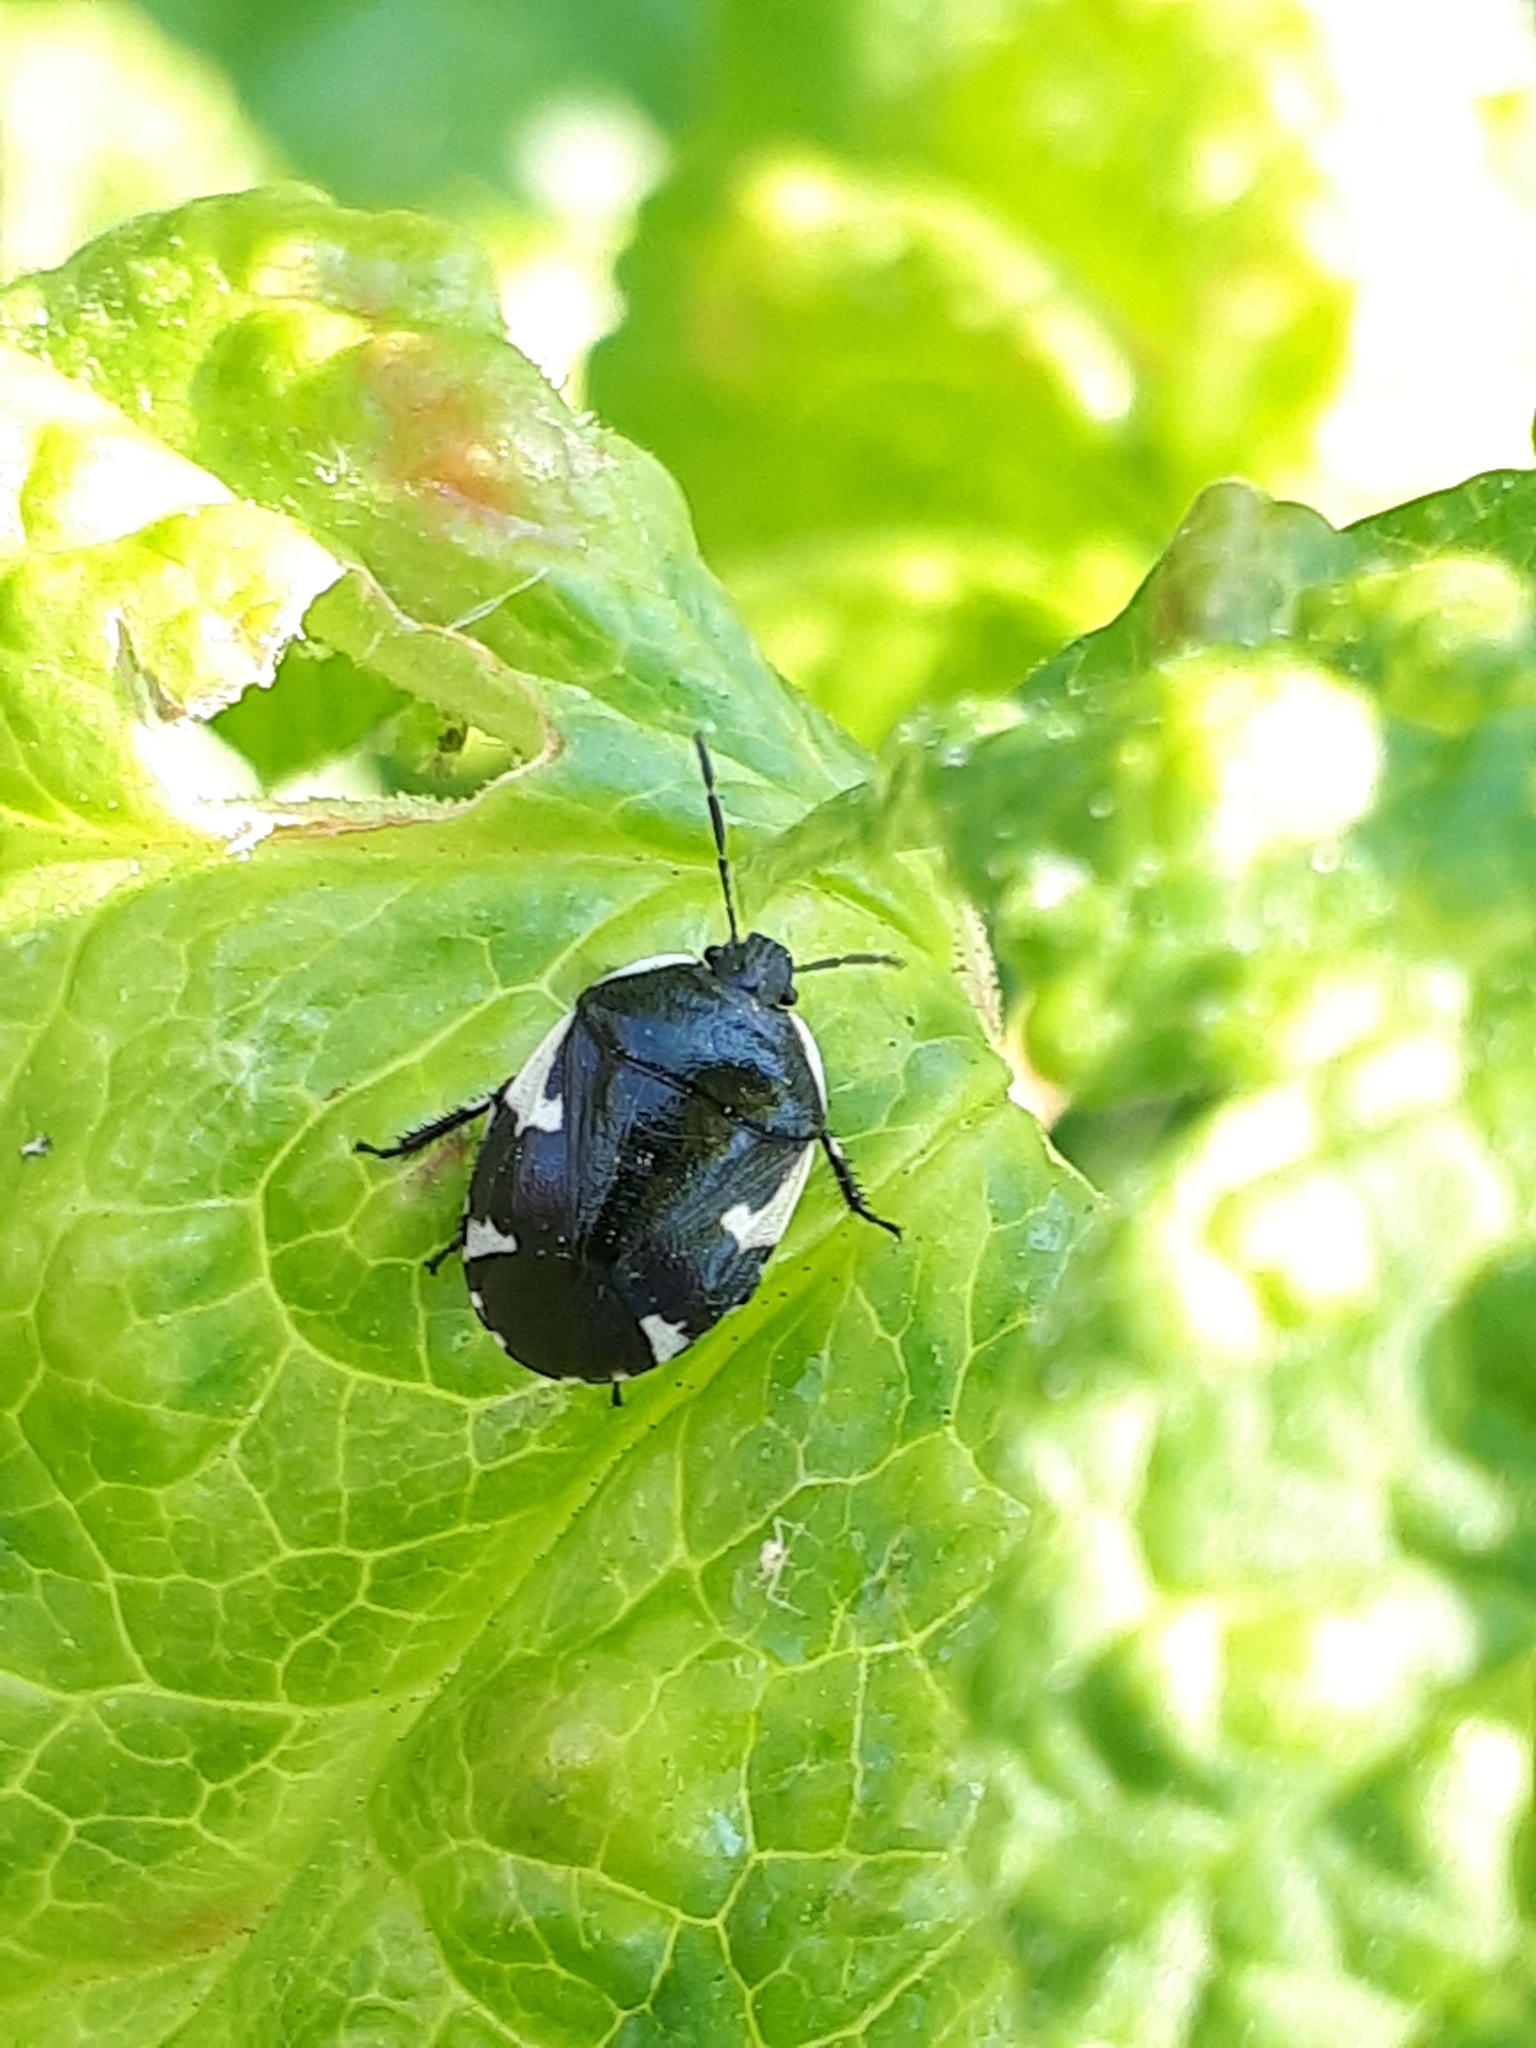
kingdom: Animalia
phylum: Arthropoda
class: Insecta
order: Hemiptera
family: Cydnidae
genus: Tritomegas
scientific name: Tritomegas sexmaculatus
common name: Rambur's pied shieldbug
